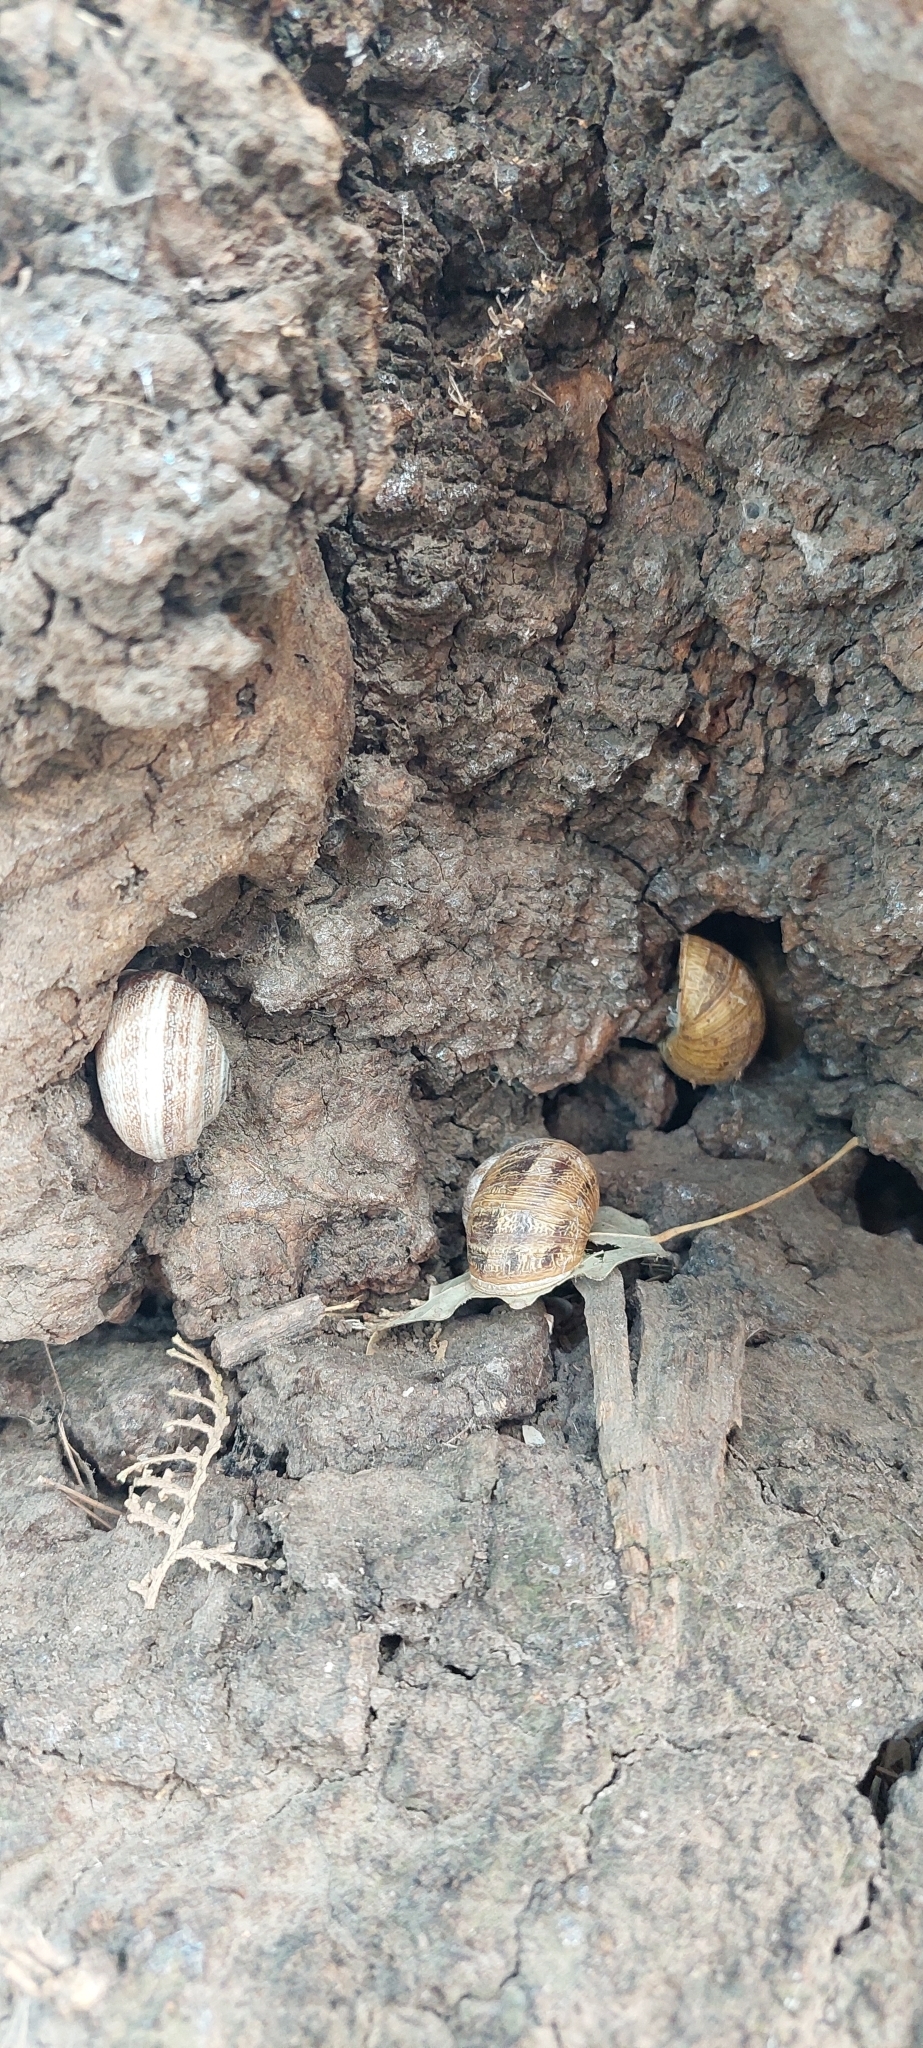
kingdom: Animalia
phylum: Mollusca
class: Gastropoda
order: Stylommatophora
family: Helicidae
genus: Cornu
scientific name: Cornu aspersum
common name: Brown garden snail
